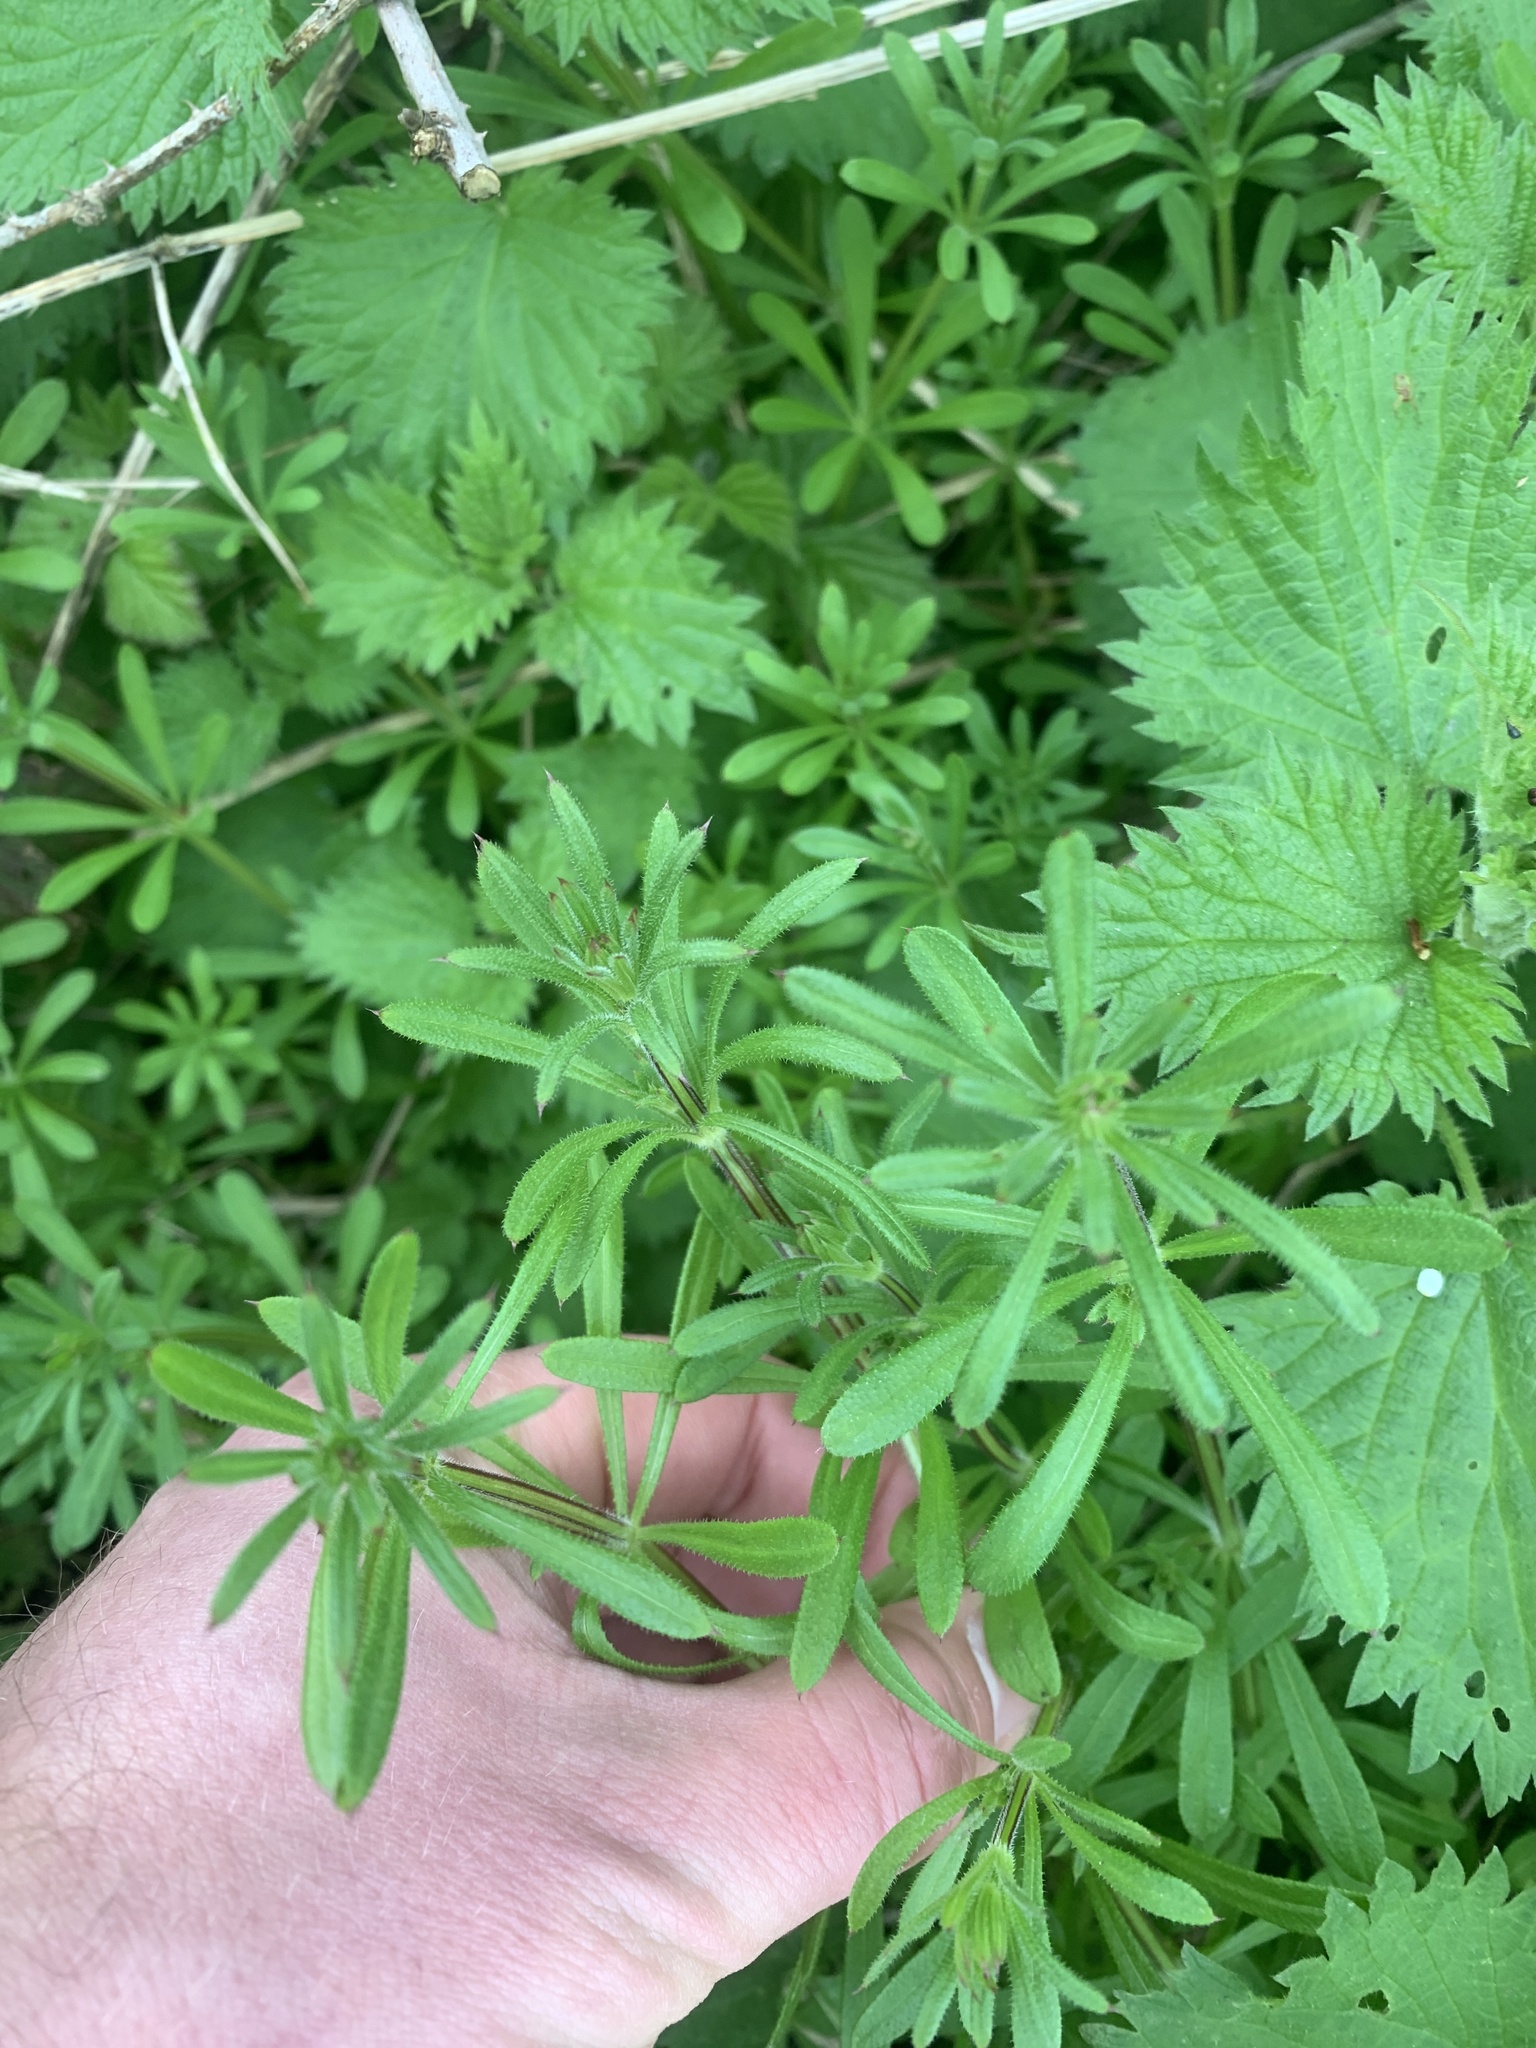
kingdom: Plantae
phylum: Tracheophyta
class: Magnoliopsida
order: Gentianales
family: Rubiaceae
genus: Galium
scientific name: Galium aparine
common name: Cleavers
